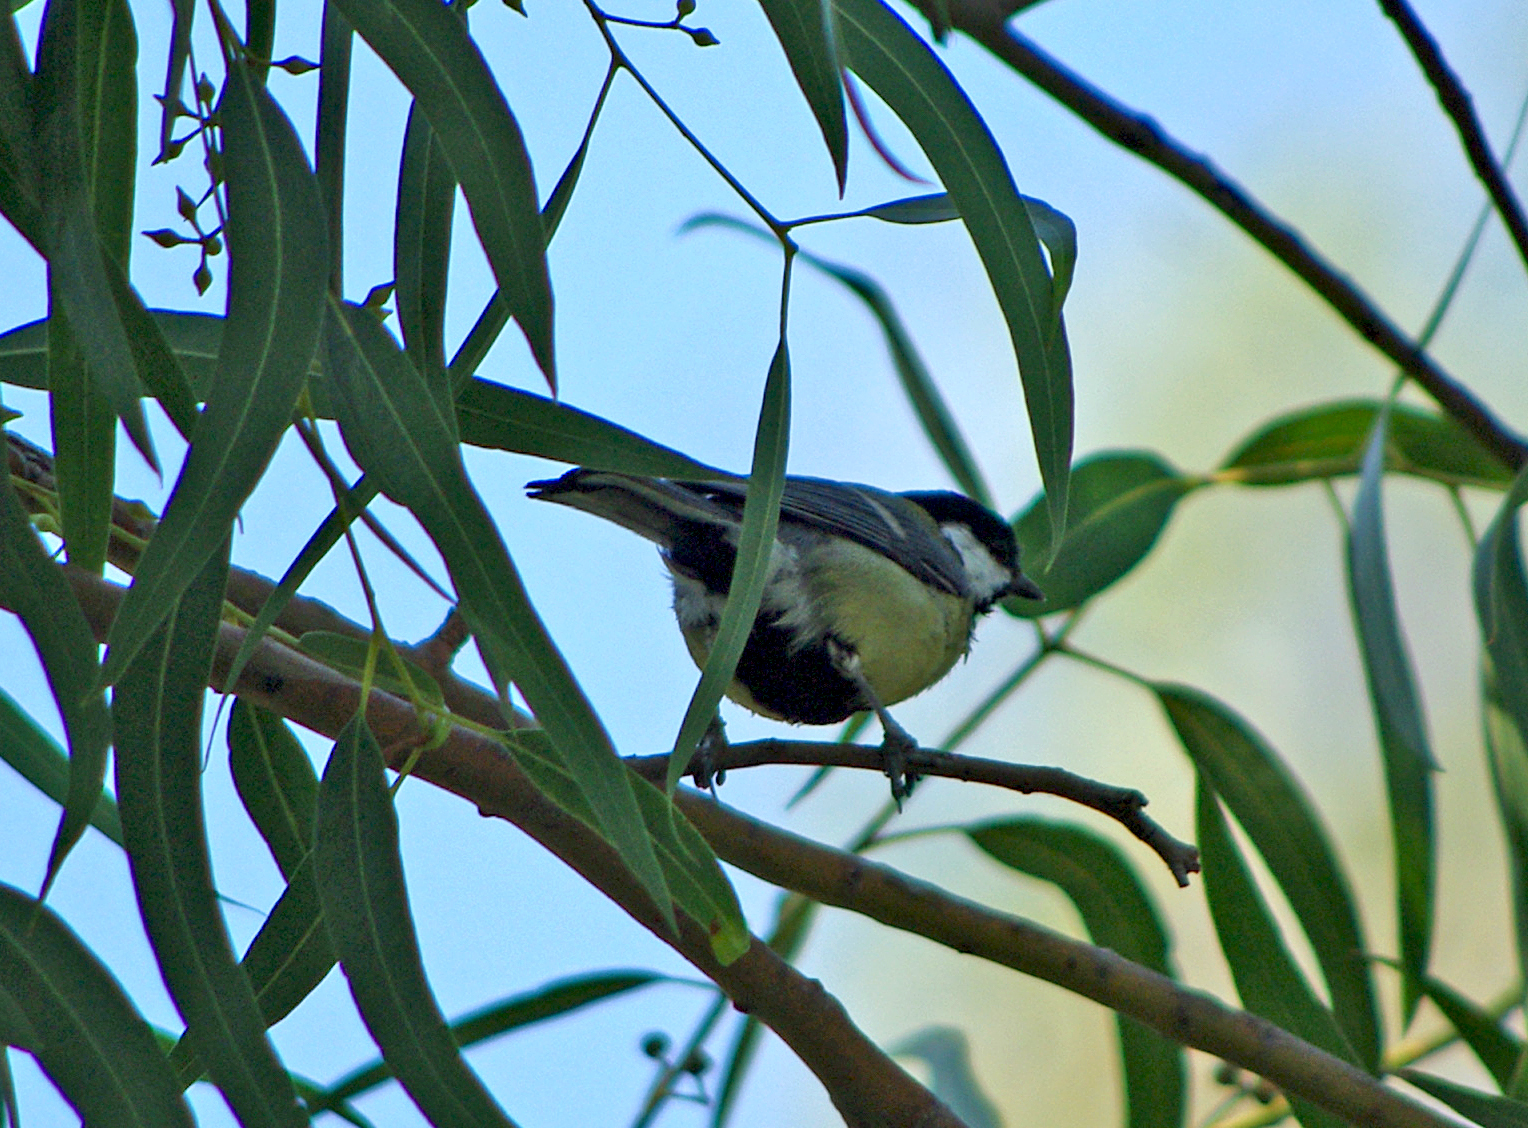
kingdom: Animalia
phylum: Chordata
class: Aves
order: Passeriformes
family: Paridae
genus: Parus
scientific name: Parus major
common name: Great tit
